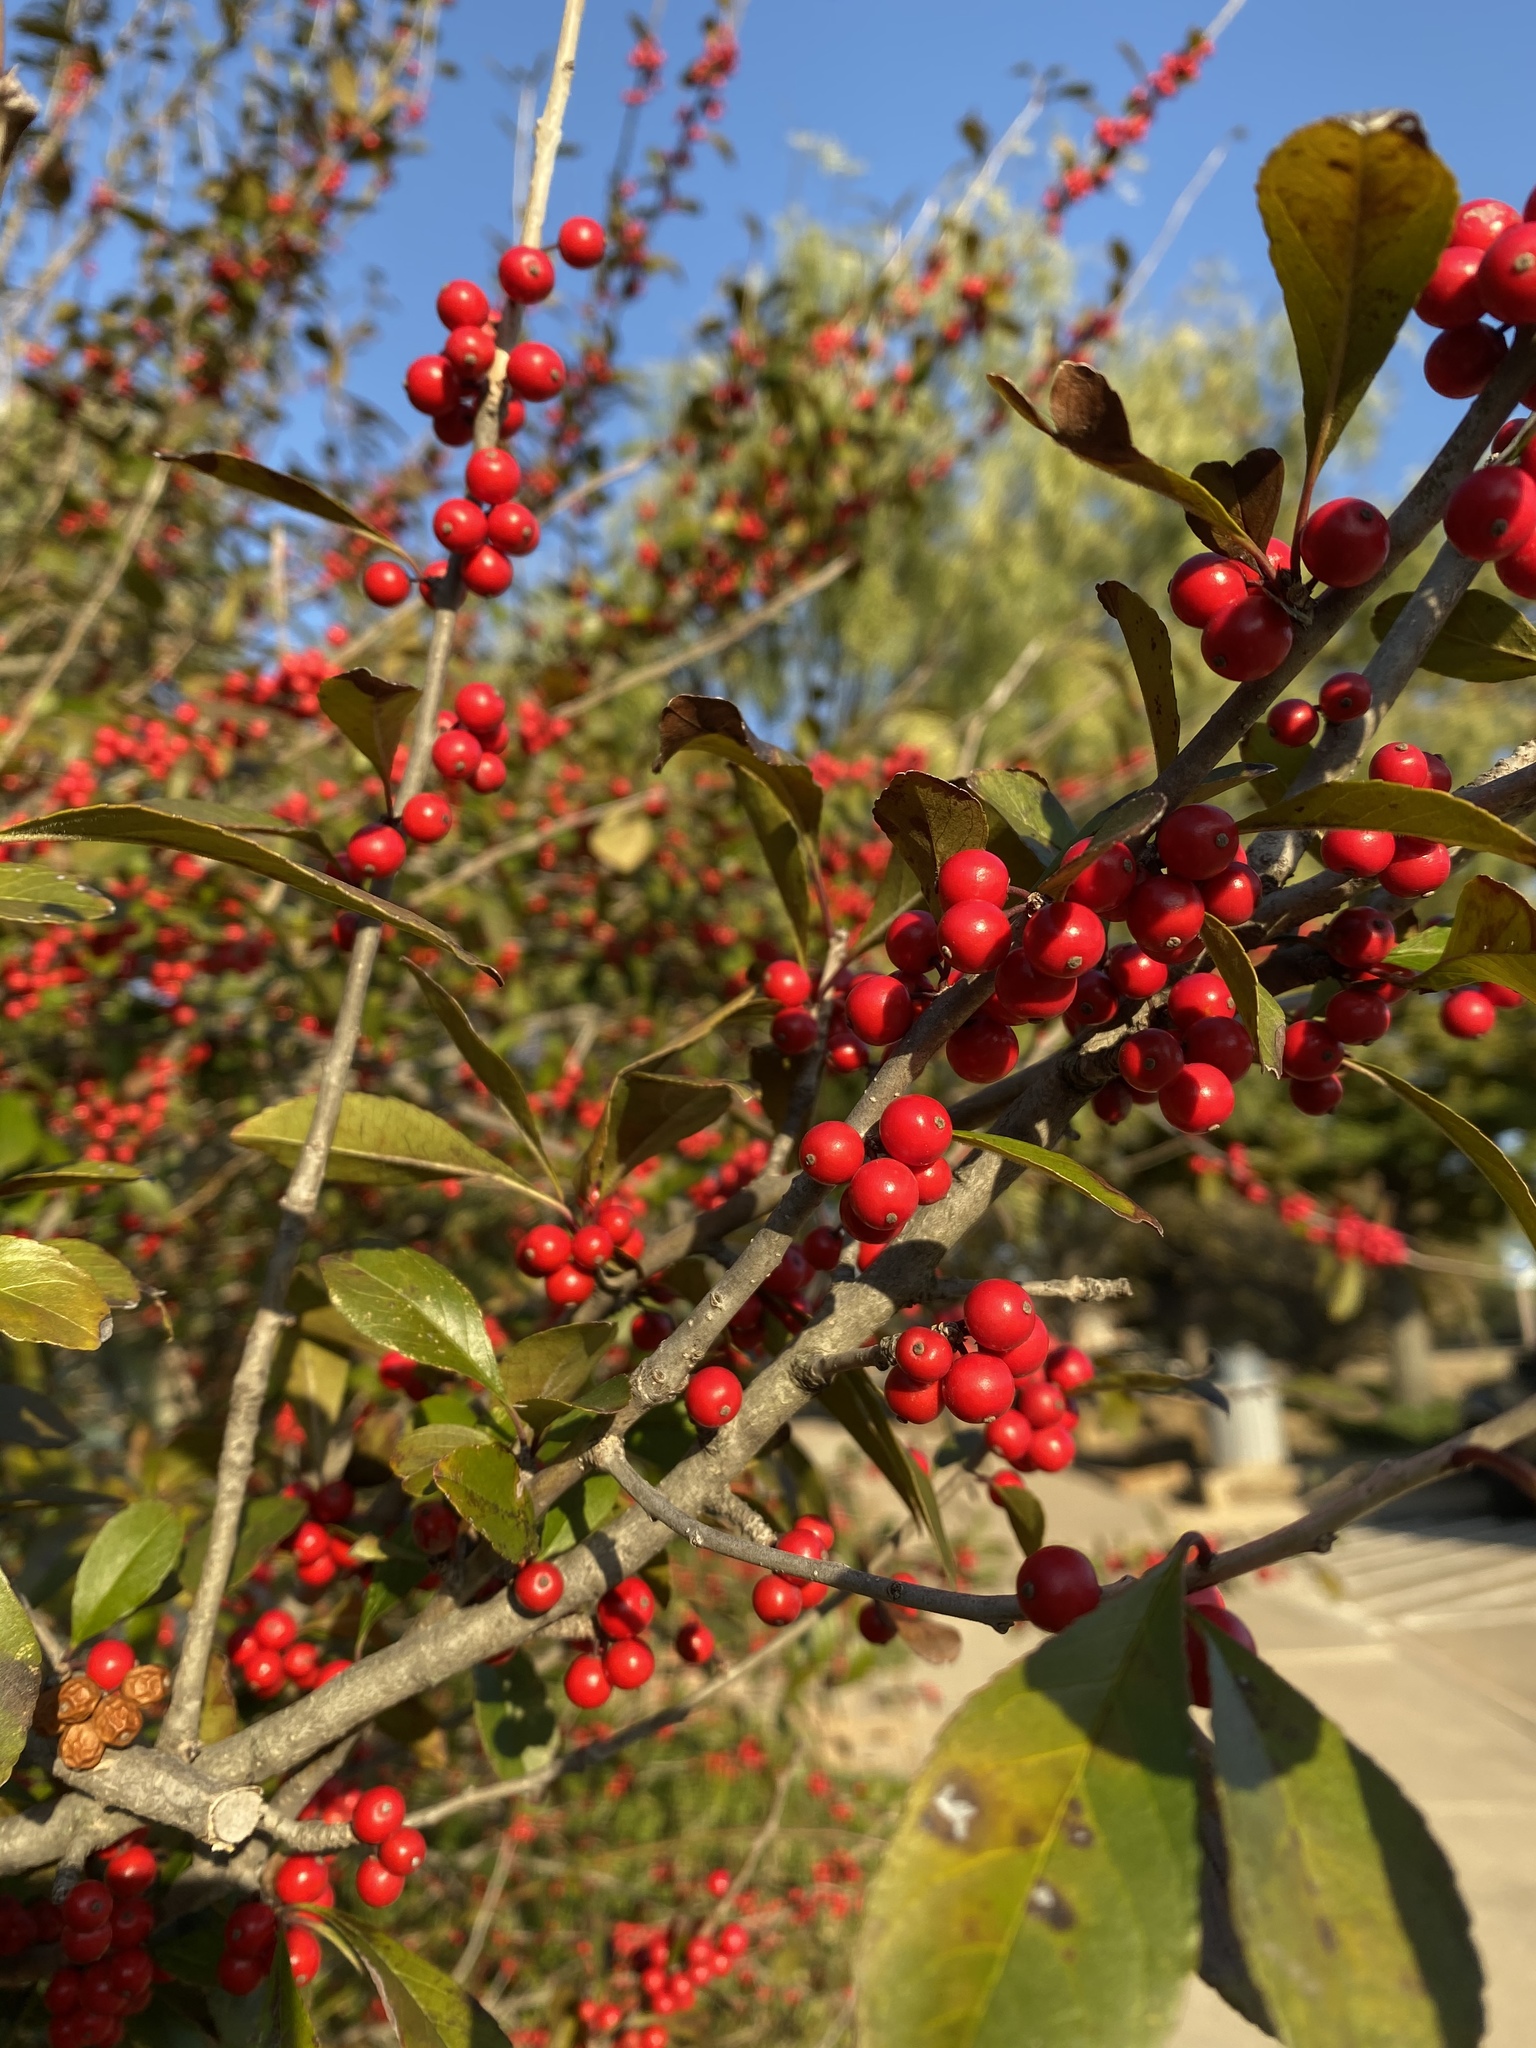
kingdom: Plantae
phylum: Tracheophyta
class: Magnoliopsida
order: Aquifoliales
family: Aquifoliaceae
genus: Ilex
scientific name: Ilex decidua
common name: Possum-haw
